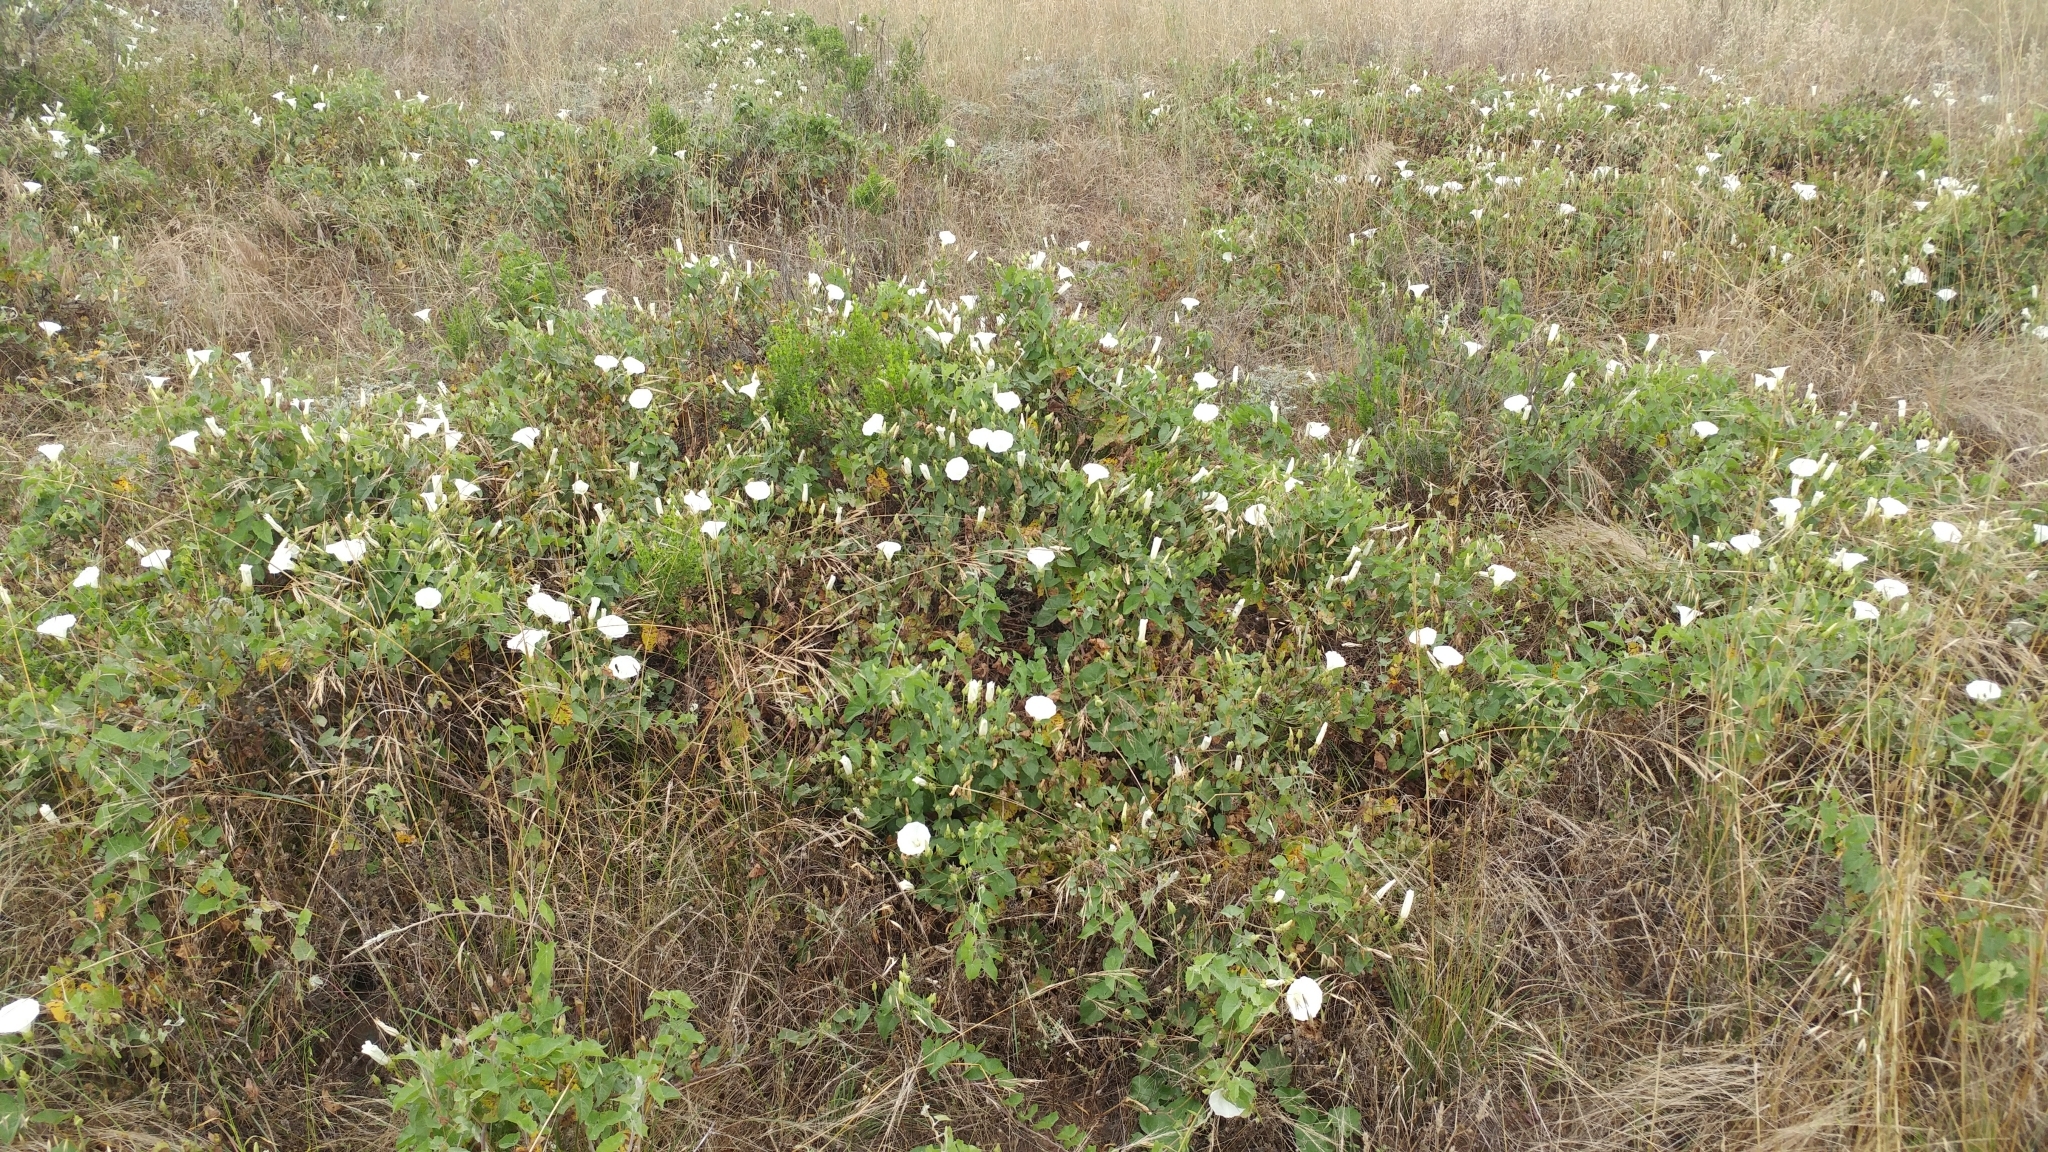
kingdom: Plantae
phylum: Tracheophyta
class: Magnoliopsida
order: Solanales
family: Convolvulaceae
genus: Calystegia
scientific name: Calystegia macrostegia
